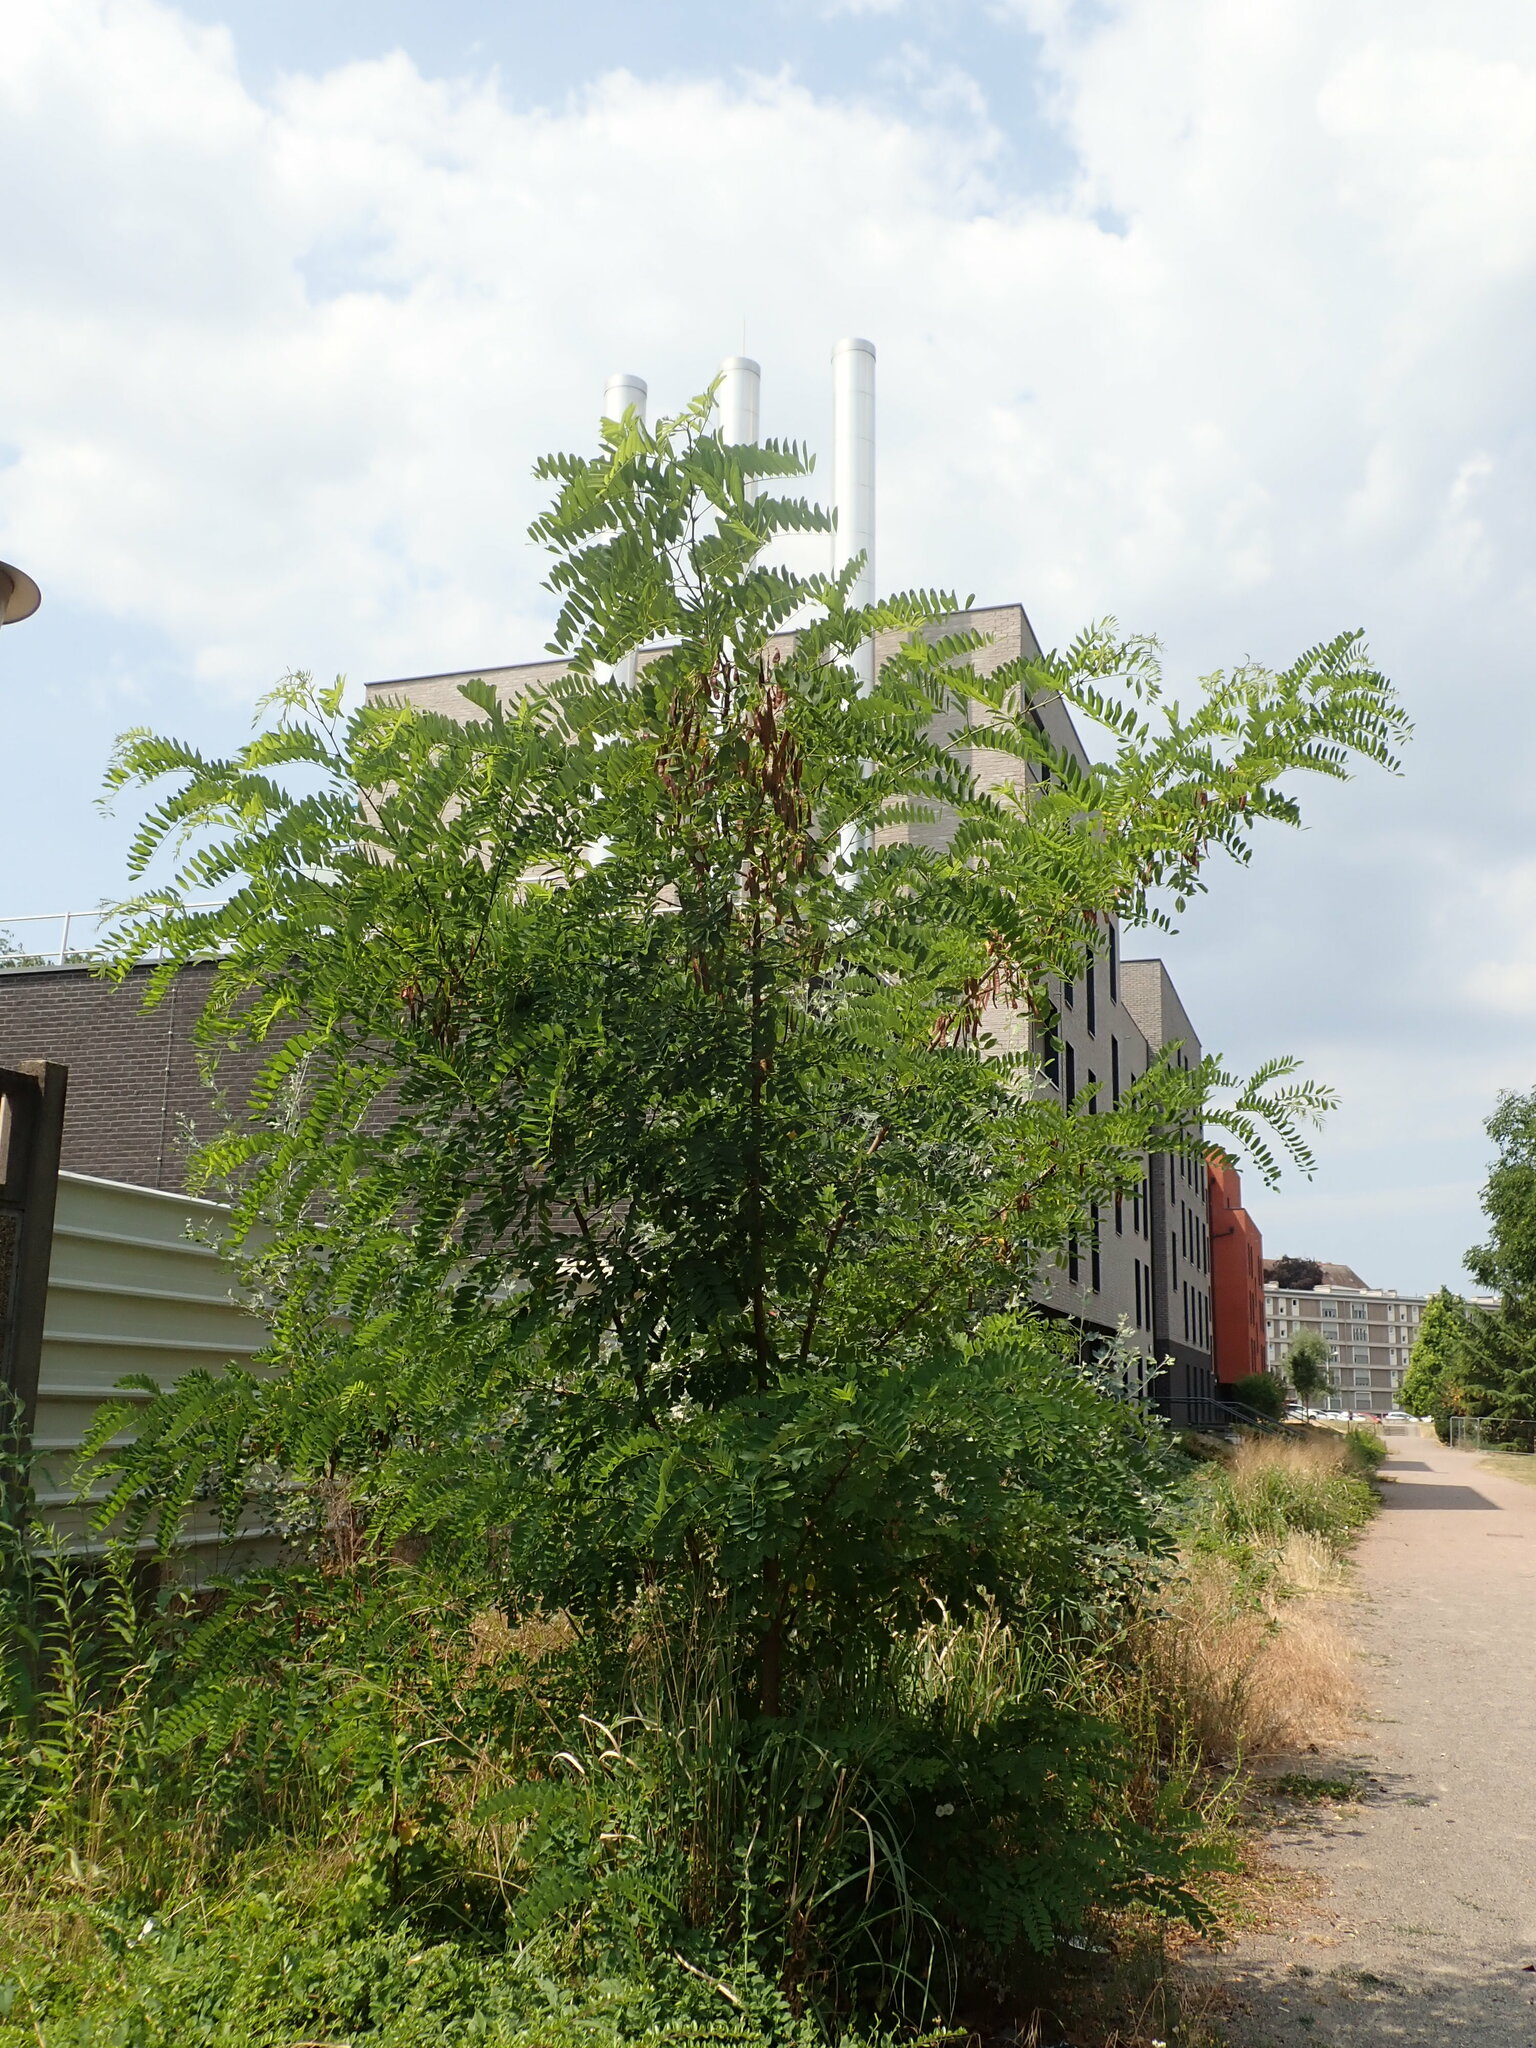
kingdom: Plantae
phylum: Tracheophyta
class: Magnoliopsida
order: Fabales
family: Fabaceae
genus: Robinia
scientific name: Robinia pseudoacacia
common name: Black locust
